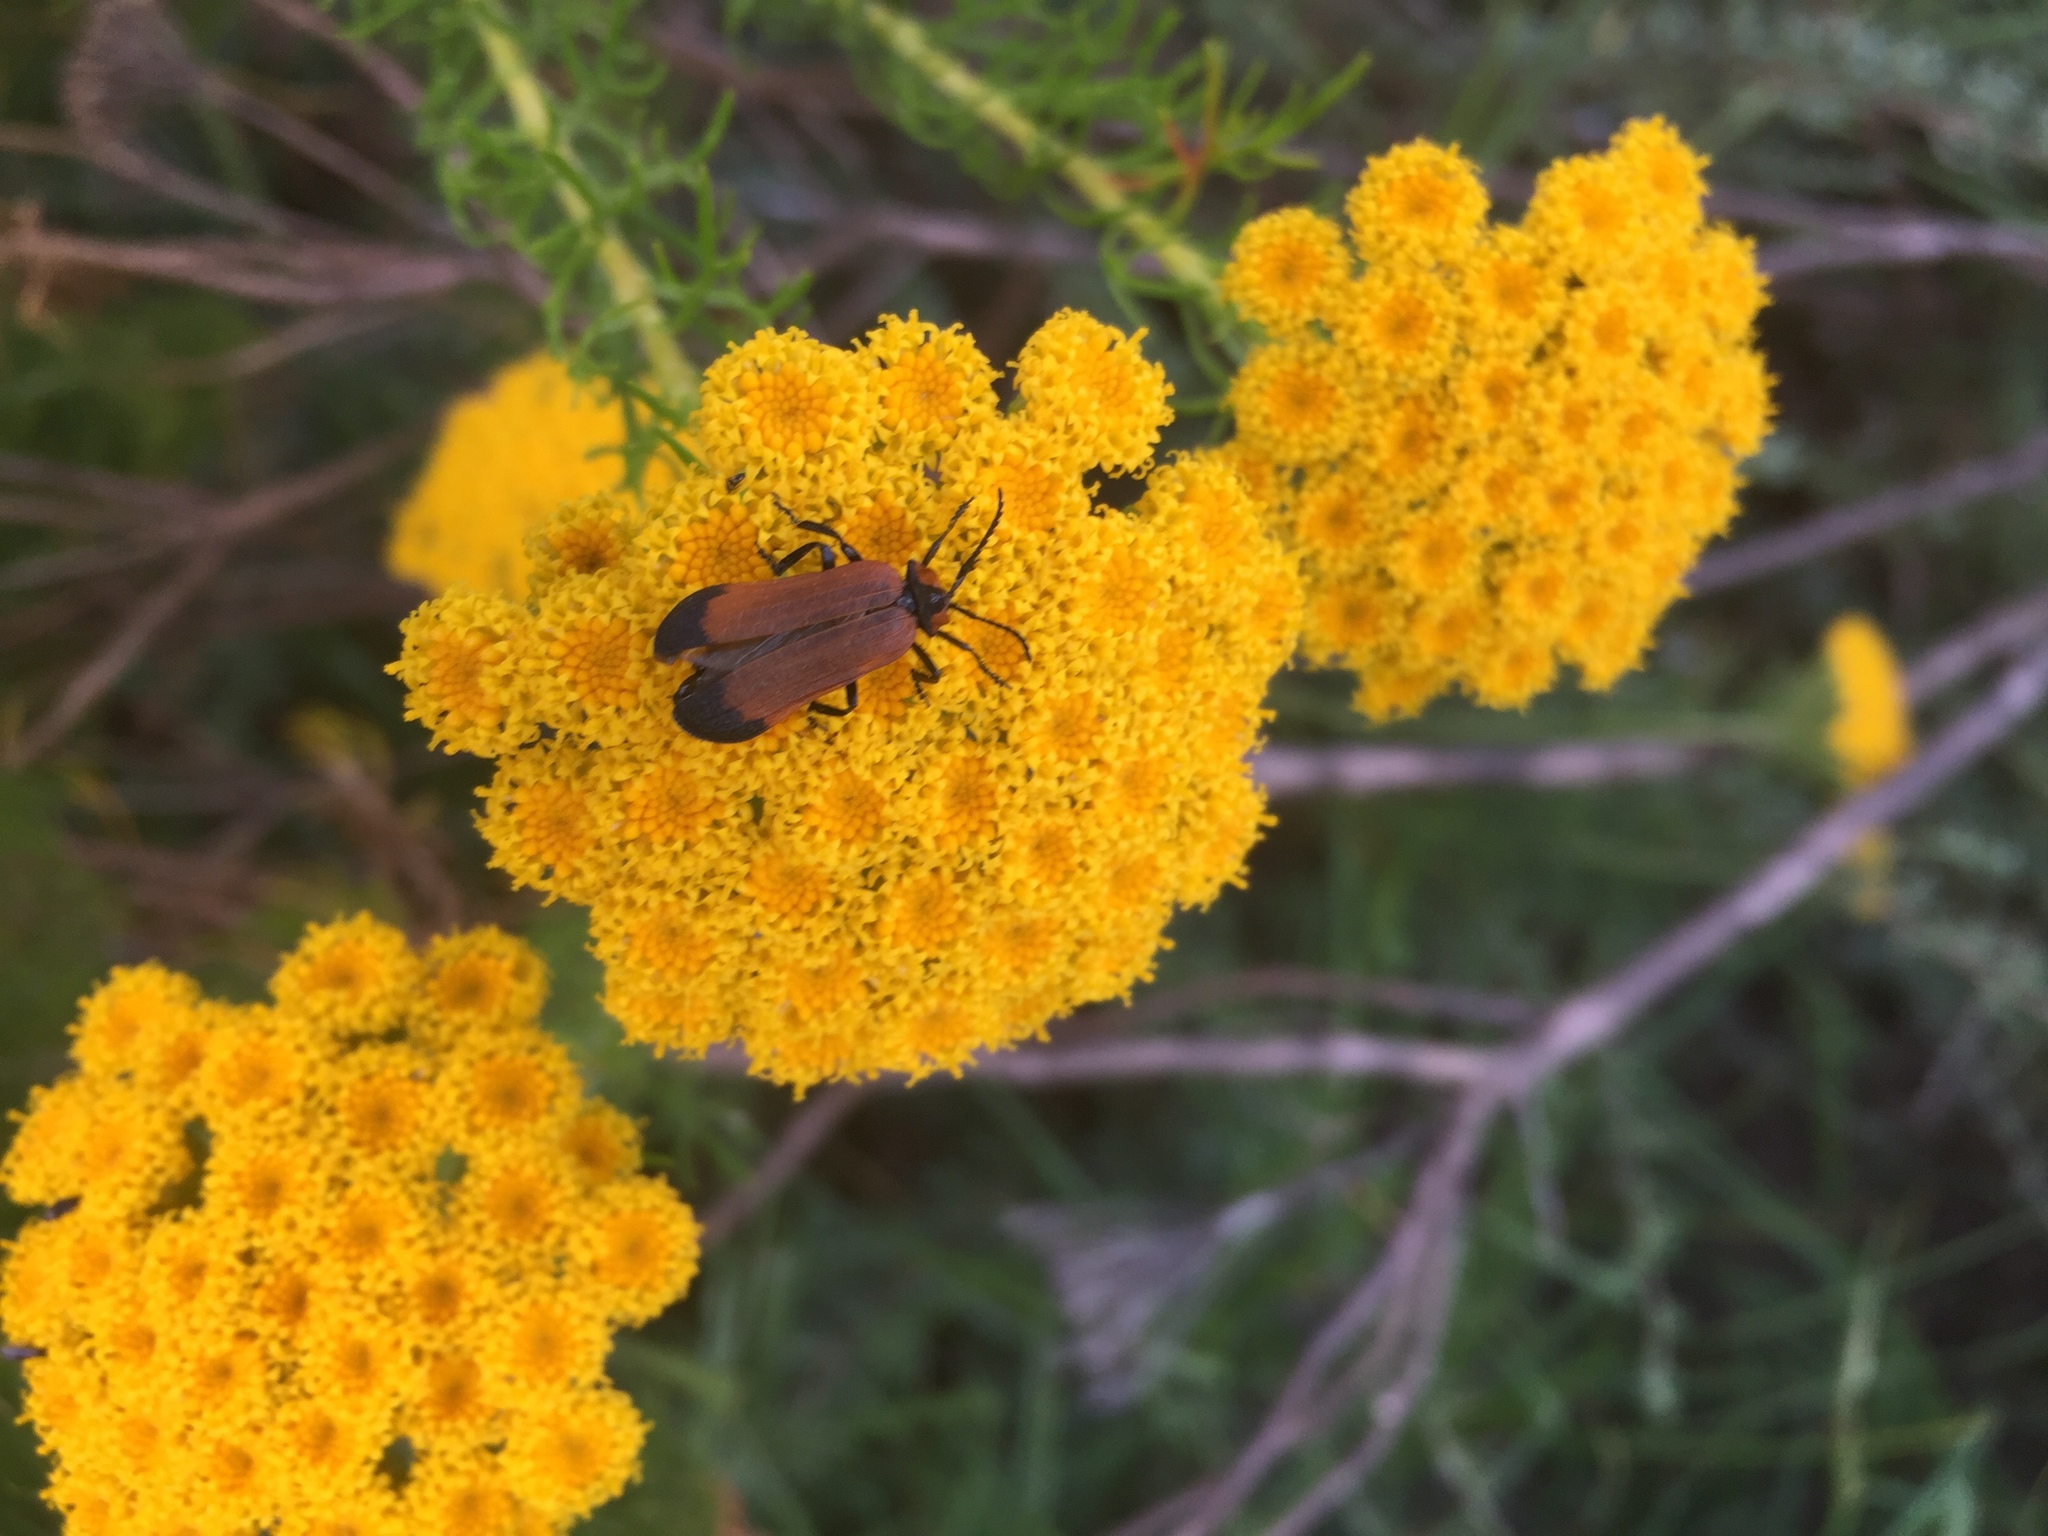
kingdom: Plantae
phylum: Tracheophyta
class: Magnoliopsida
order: Asterales
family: Asteraceae
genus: Athanasia
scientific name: Athanasia crithmifolia
